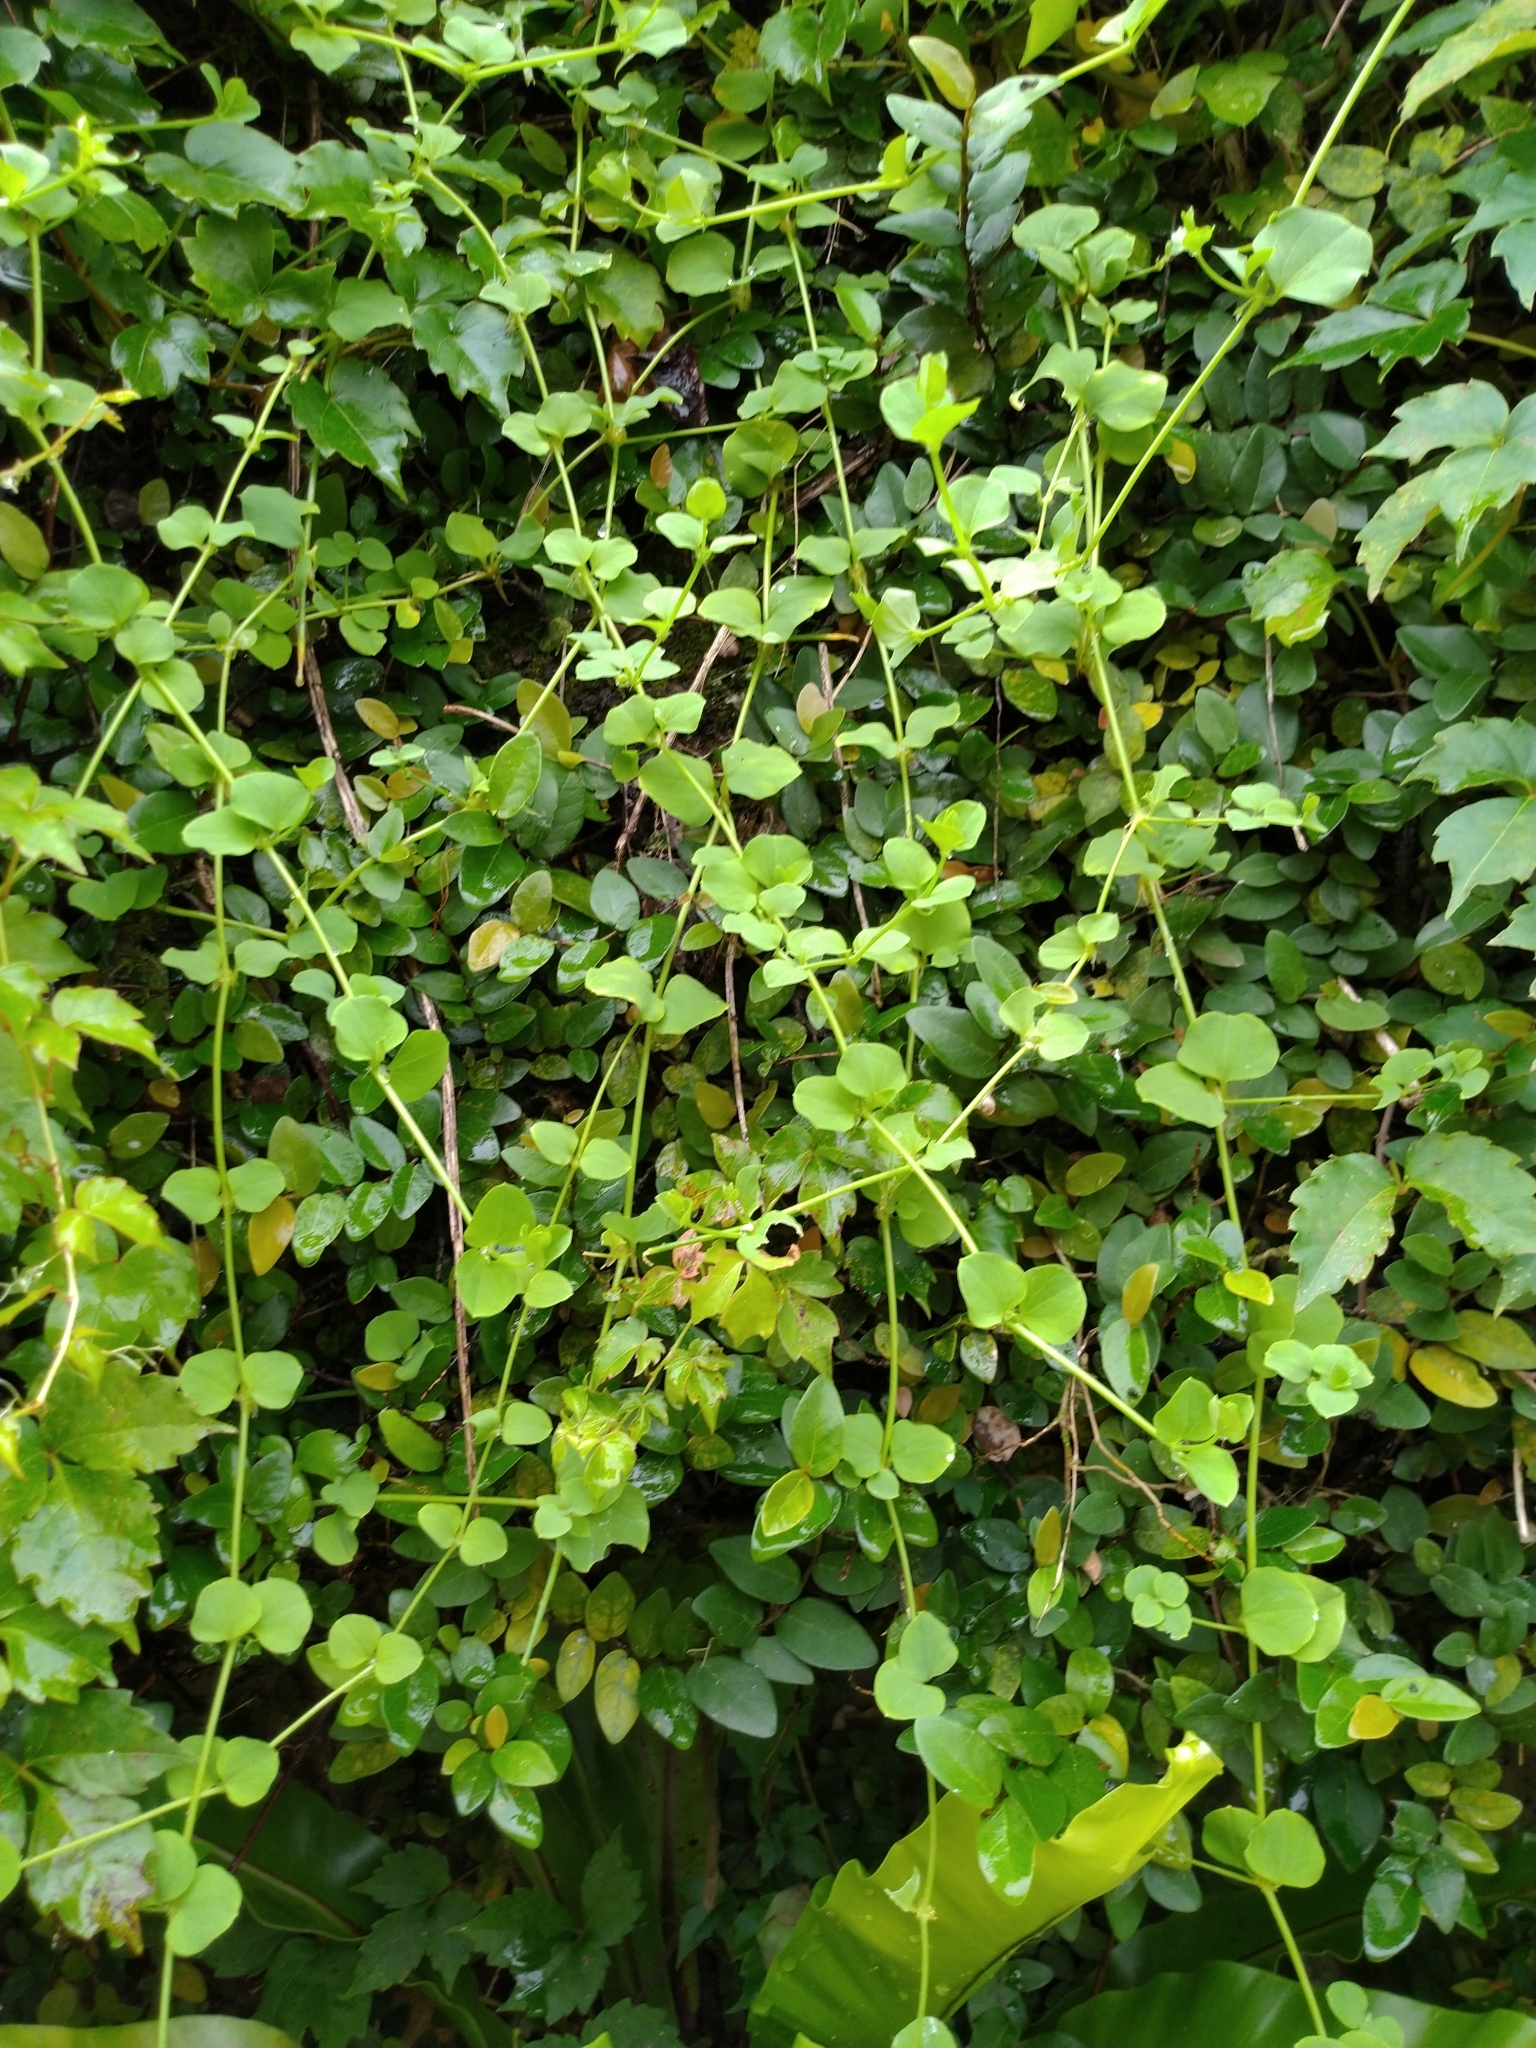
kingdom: Plantae
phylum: Tracheophyta
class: Magnoliopsida
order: Caryophyllales
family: Caryophyllaceae
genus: Drymaria
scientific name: Drymaria cordata
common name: Whitesnow
